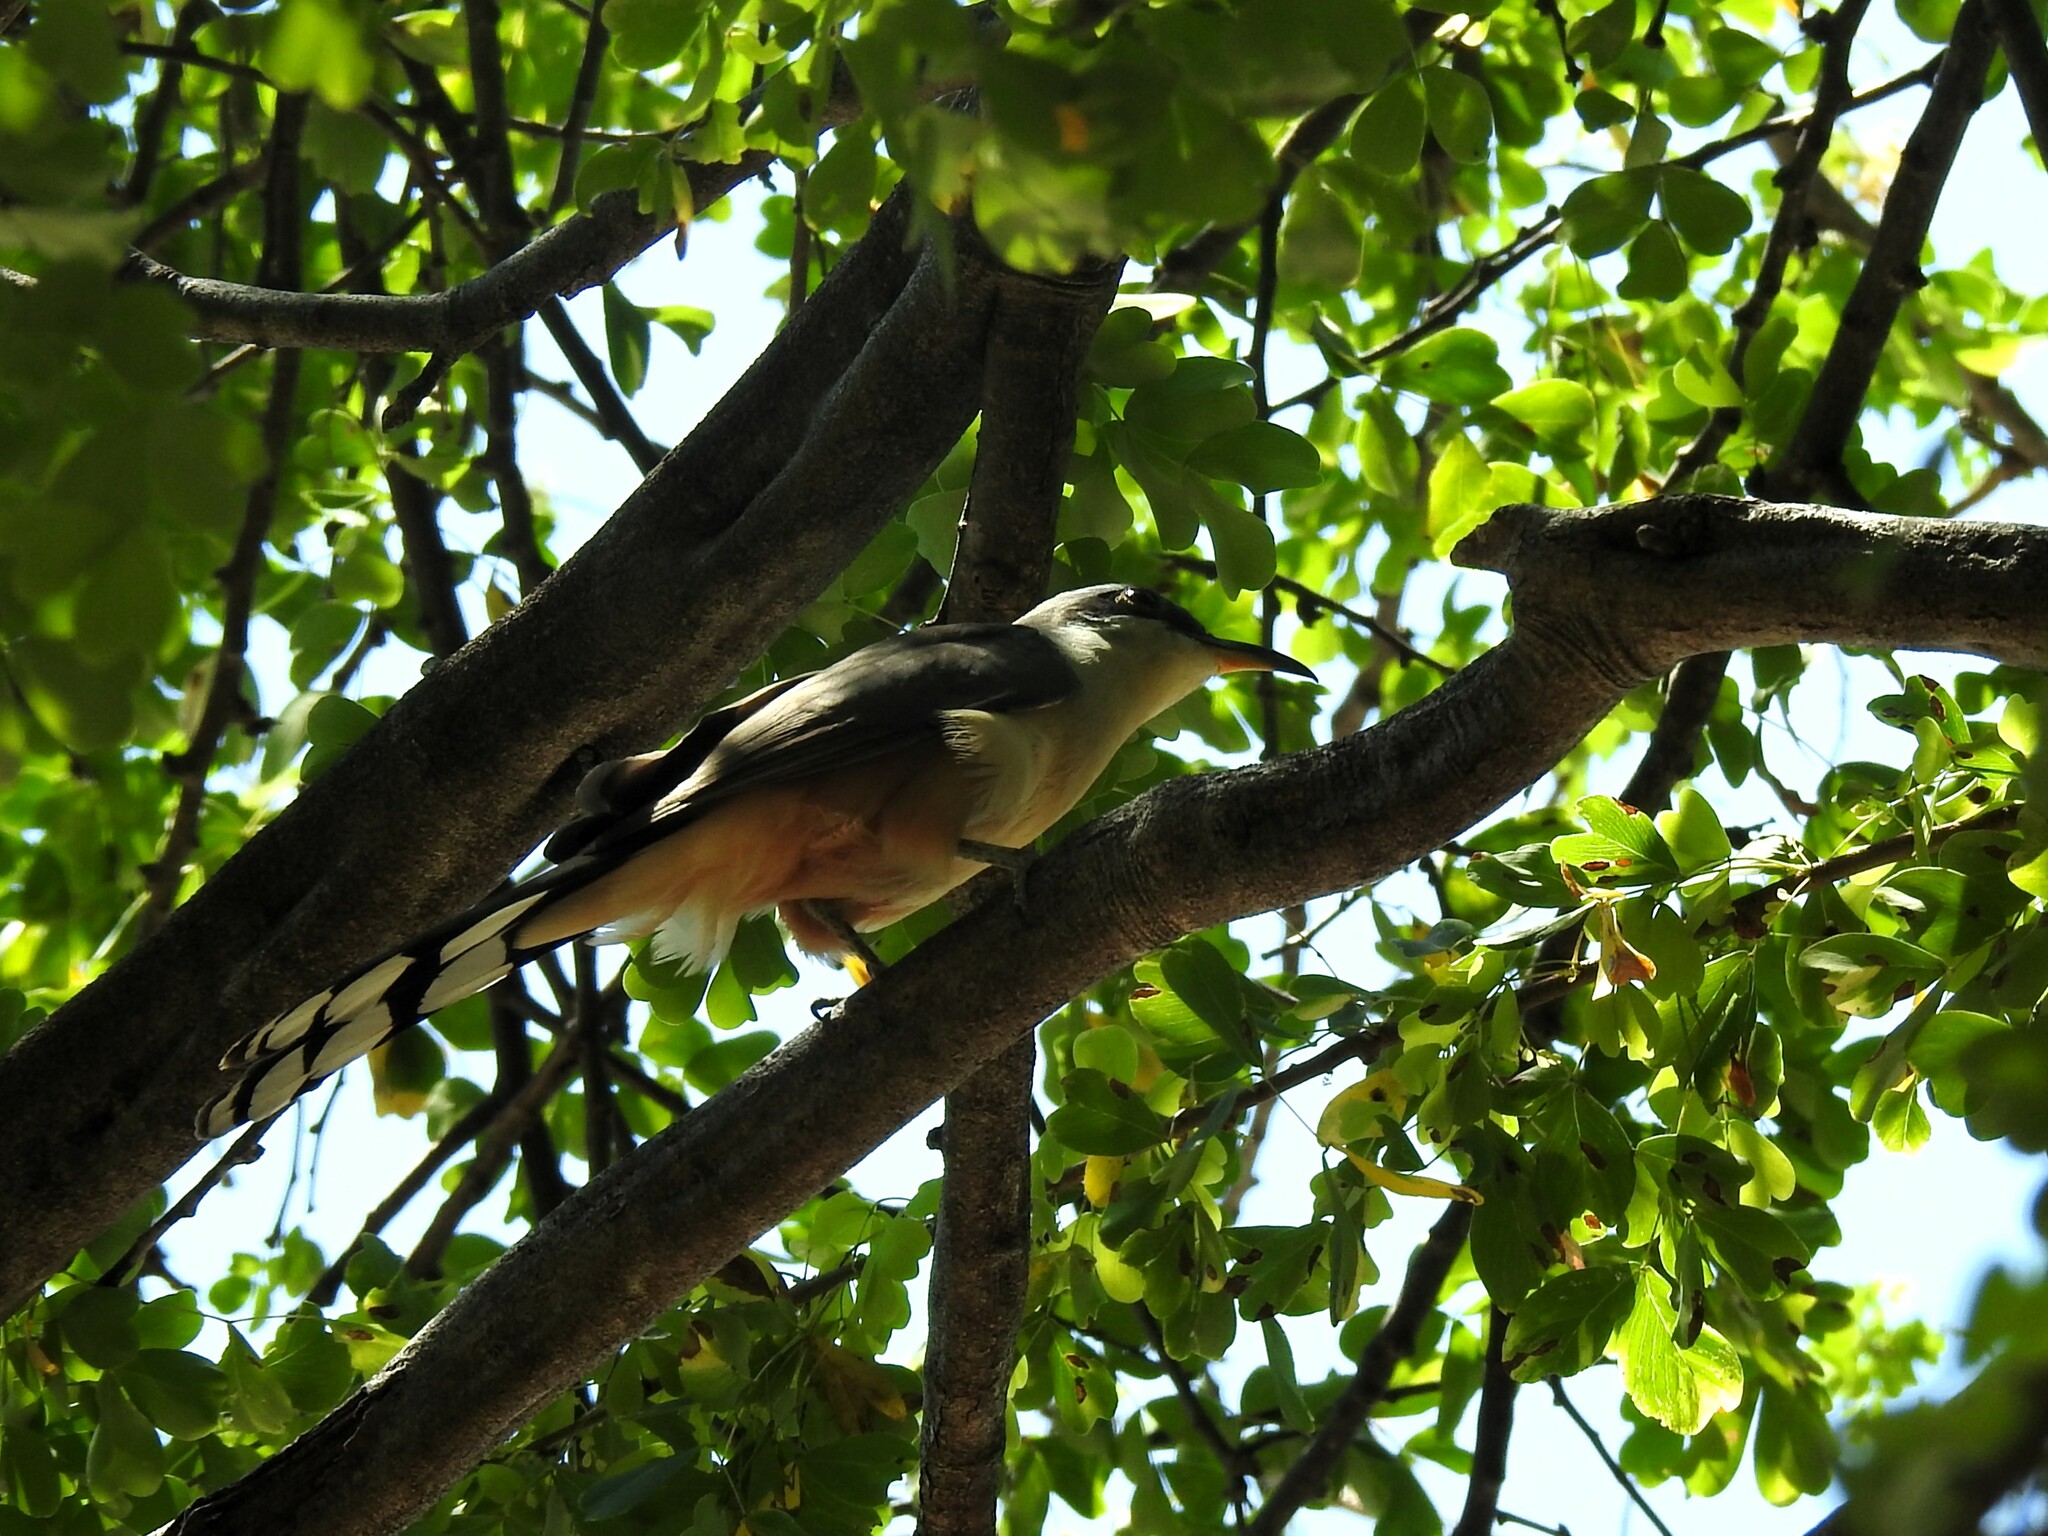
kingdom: Animalia
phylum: Chordata
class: Aves
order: Cuculiformes
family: Cuculidae
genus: Coccyzus
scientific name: Coccyzus minor
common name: Mangrove cuckoo
